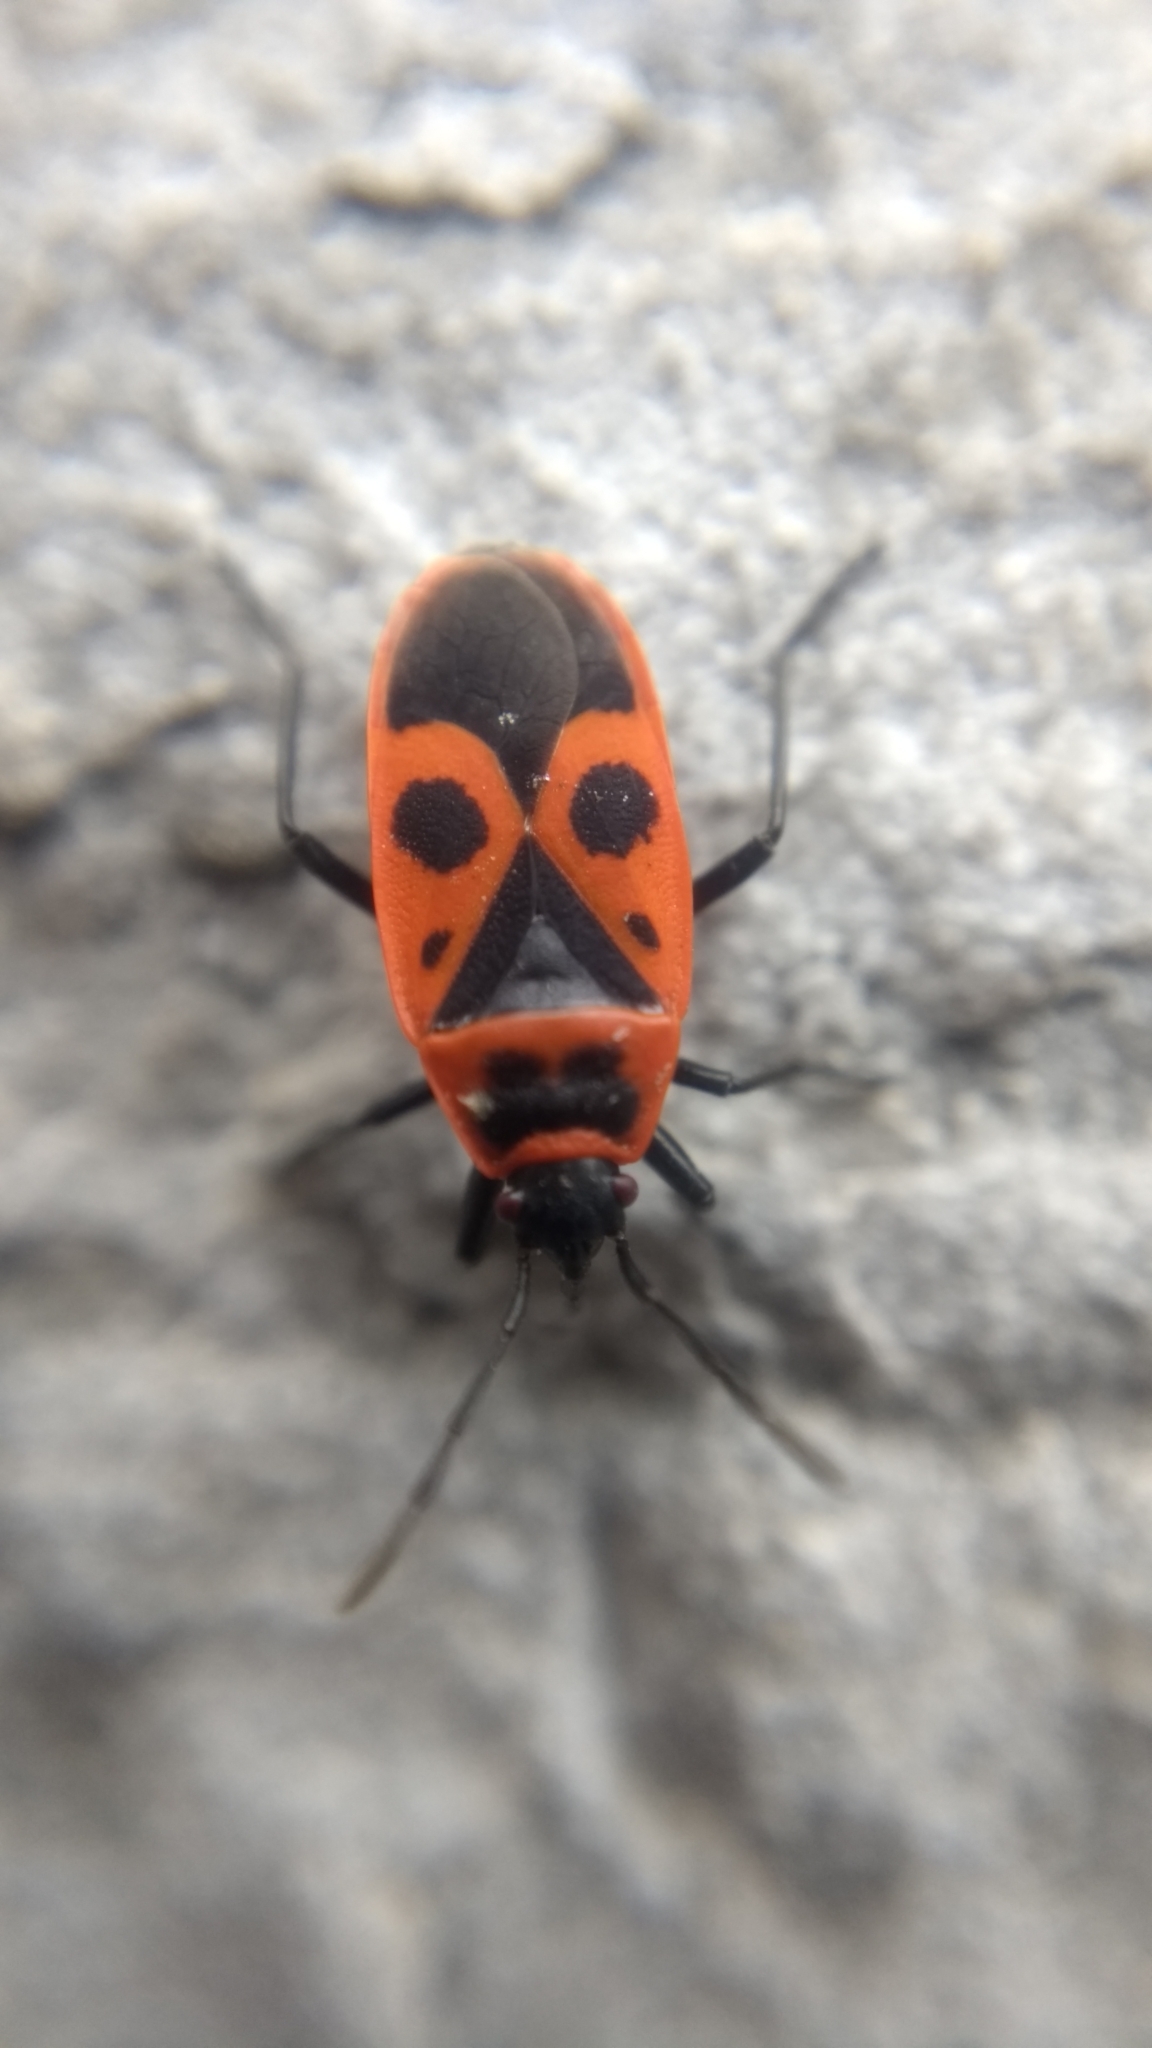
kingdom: Animalia
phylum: Arthropoda
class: Insecta
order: Hemiptera
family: Pyrrhocoridae
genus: Pyrrhocoris
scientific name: Pyrrhocoris apterus
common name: Firebug
